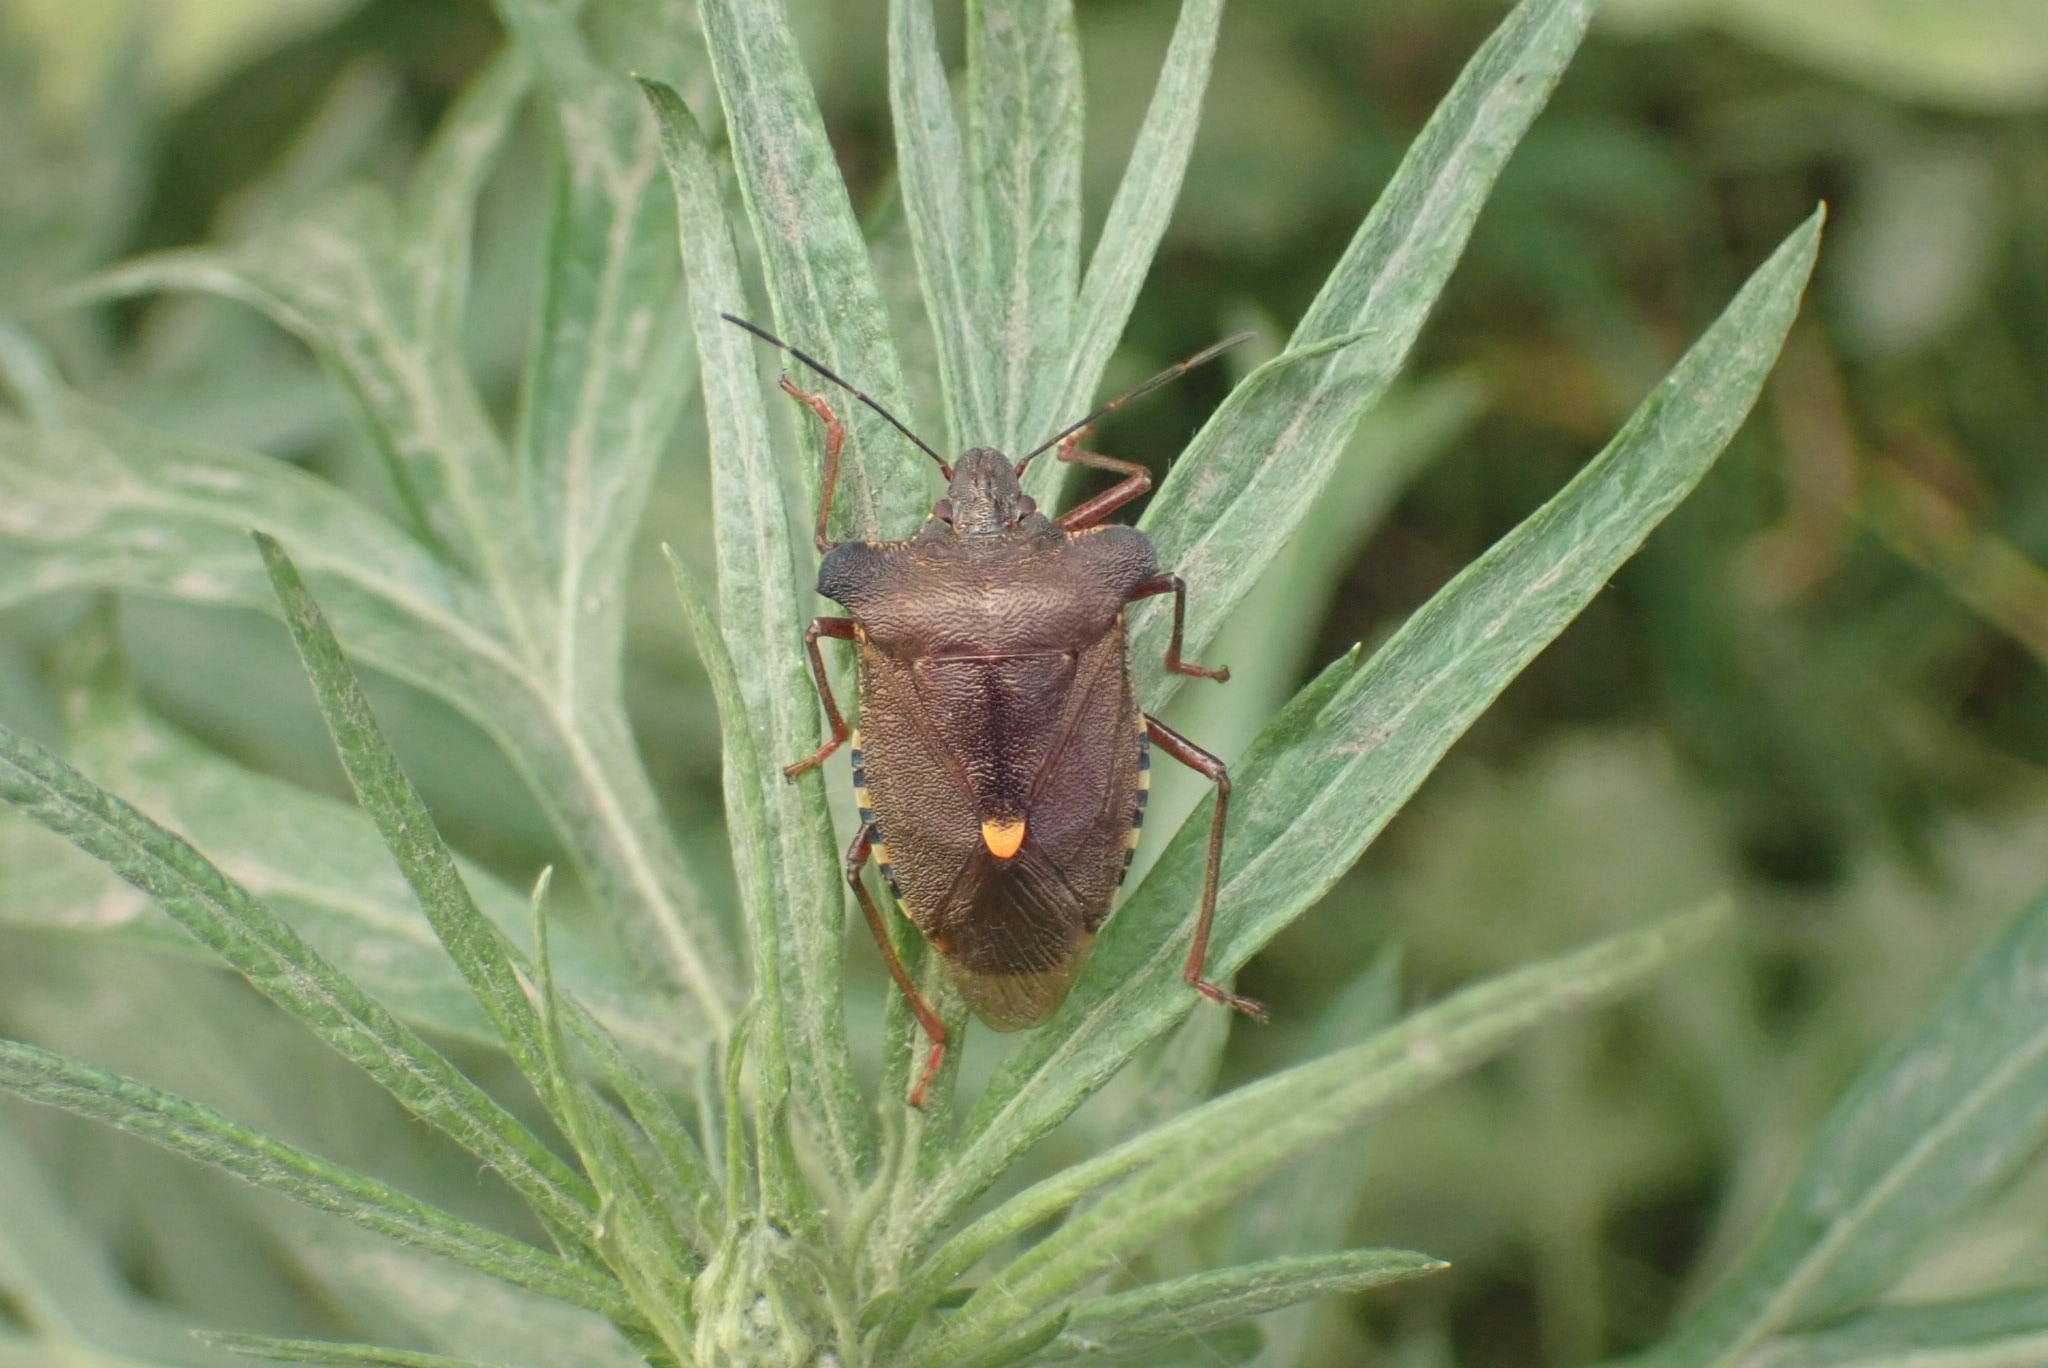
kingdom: Animalia
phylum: Arthropoda
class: Insecta
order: Hemiptera
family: Pentatomidae
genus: Pentatoma
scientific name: Pentatoma rufipes
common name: Forest bug
